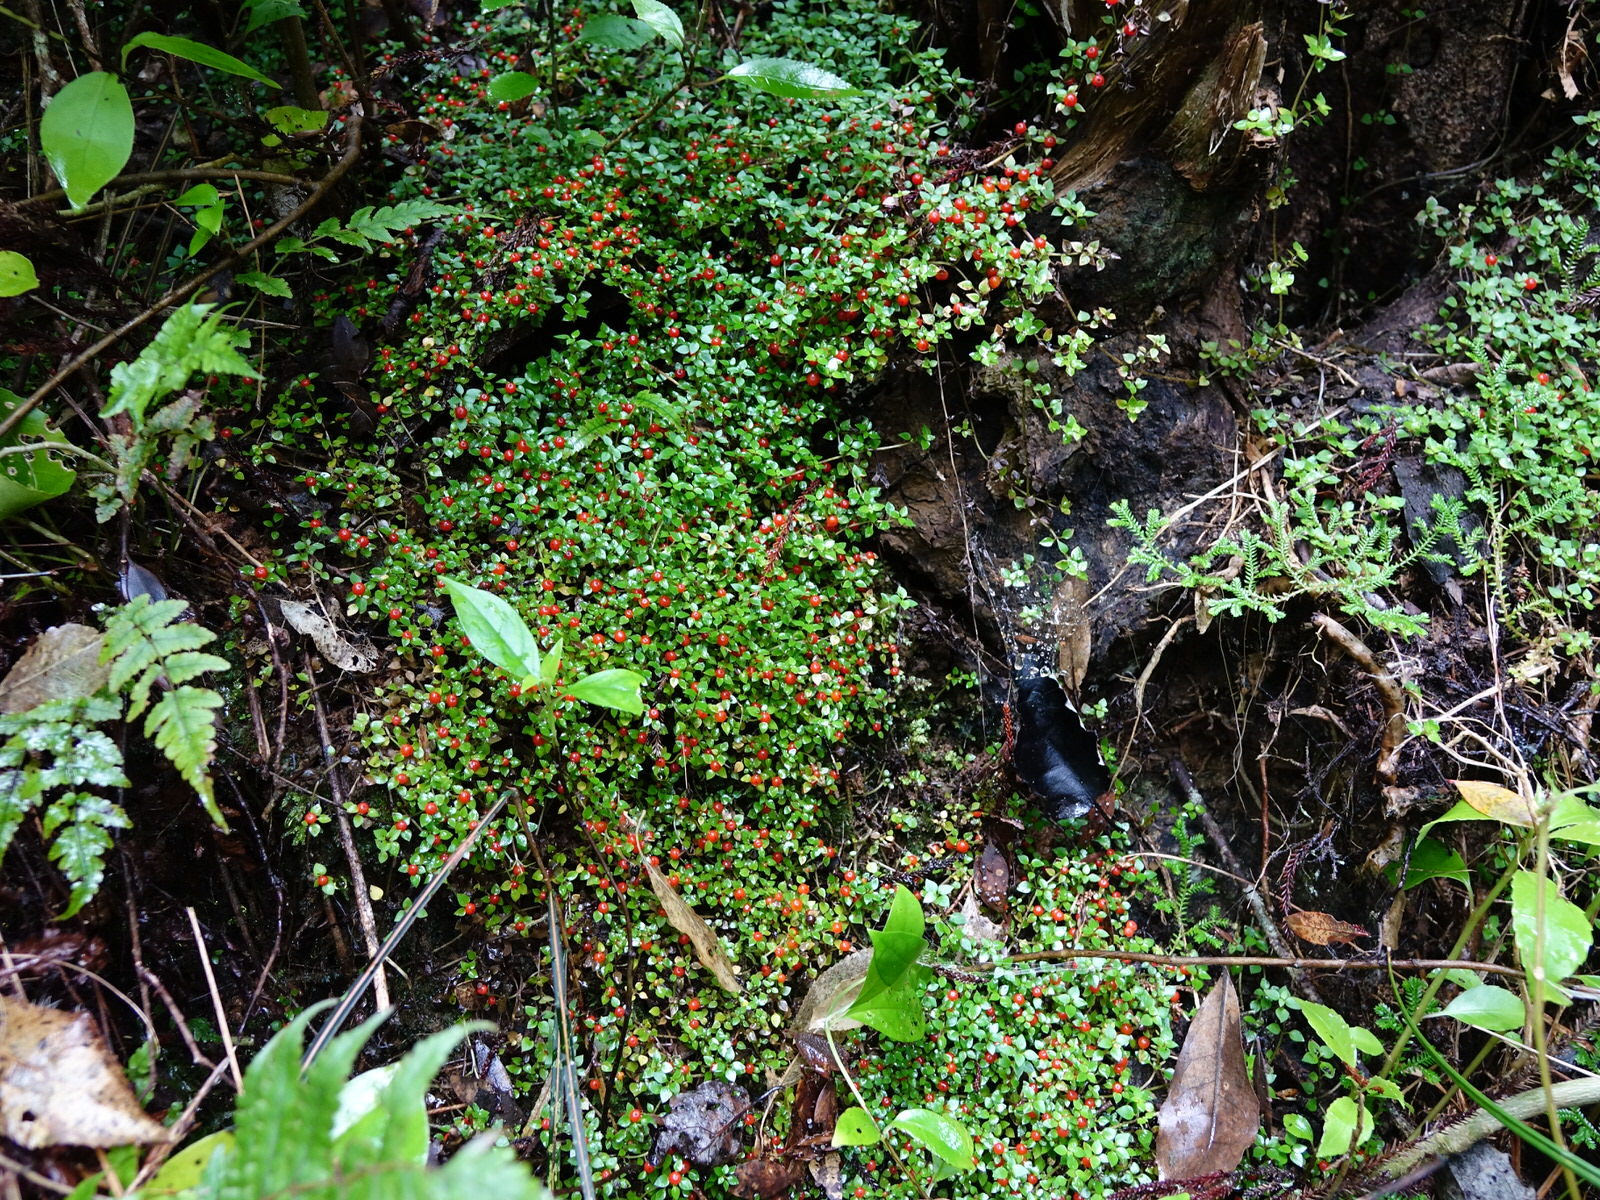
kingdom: Plantae
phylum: Tracheophyta
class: Magnoliopsida
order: Gentianales
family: Rubiaceae
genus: Nertera
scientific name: Nertera granadensis
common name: Beadplant
